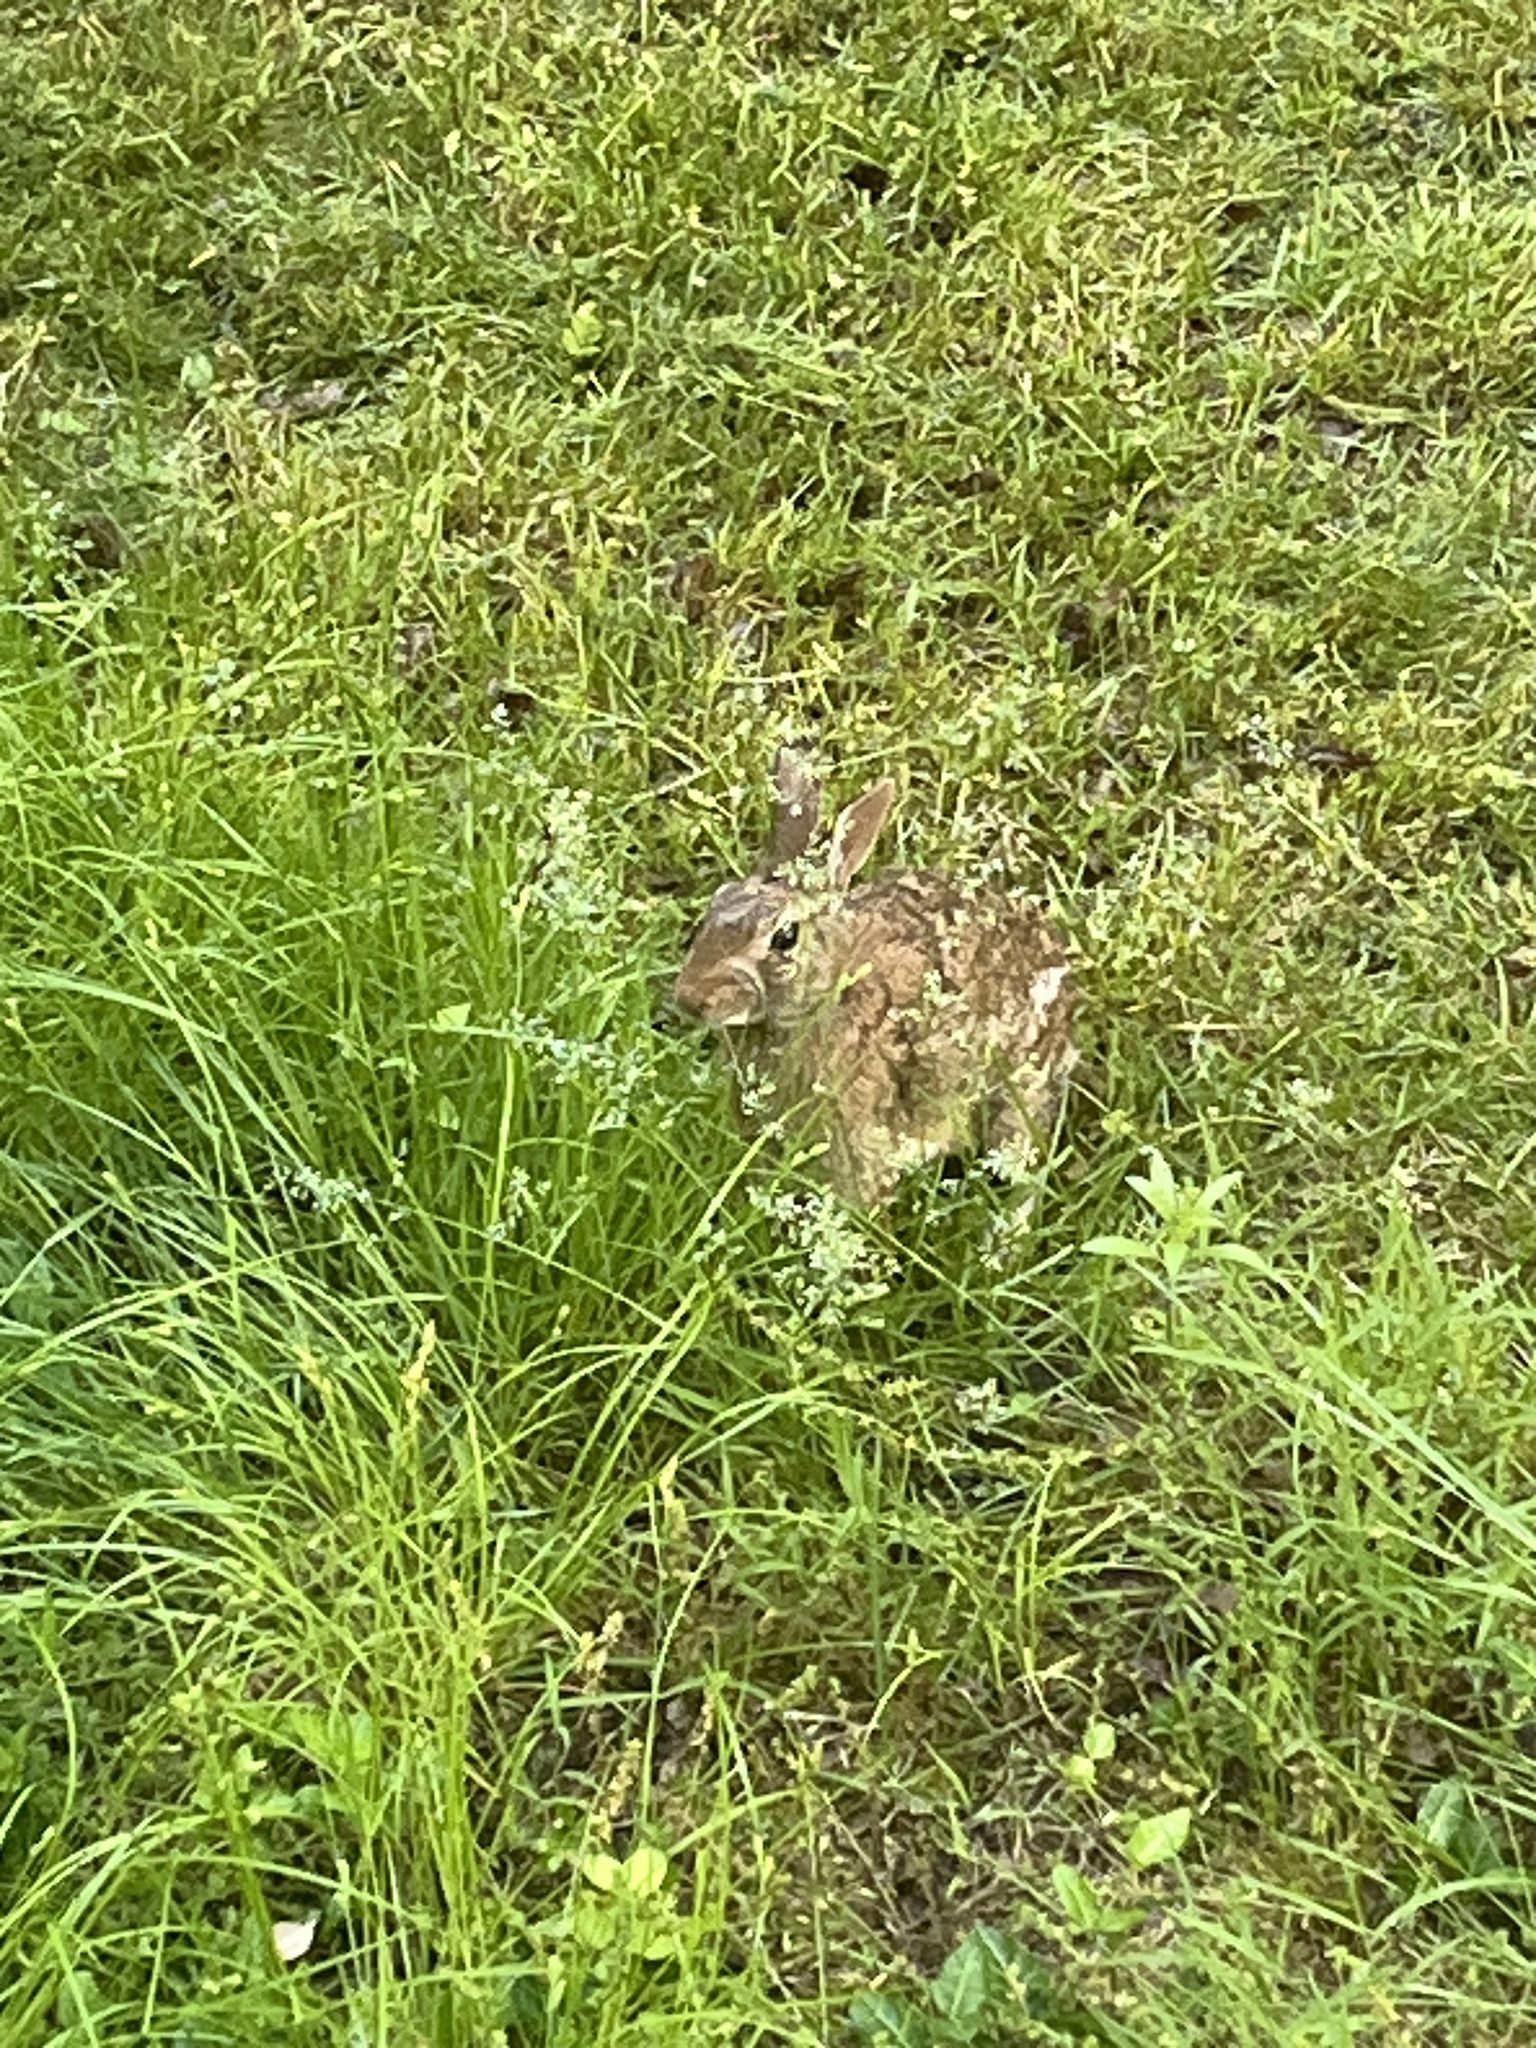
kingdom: Animalia
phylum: Chordata
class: Mammalia
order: Lagomorpha
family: Leporidae
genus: Sylvilagus
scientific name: Sylvilagus floridanus
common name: Eastern cottontail
